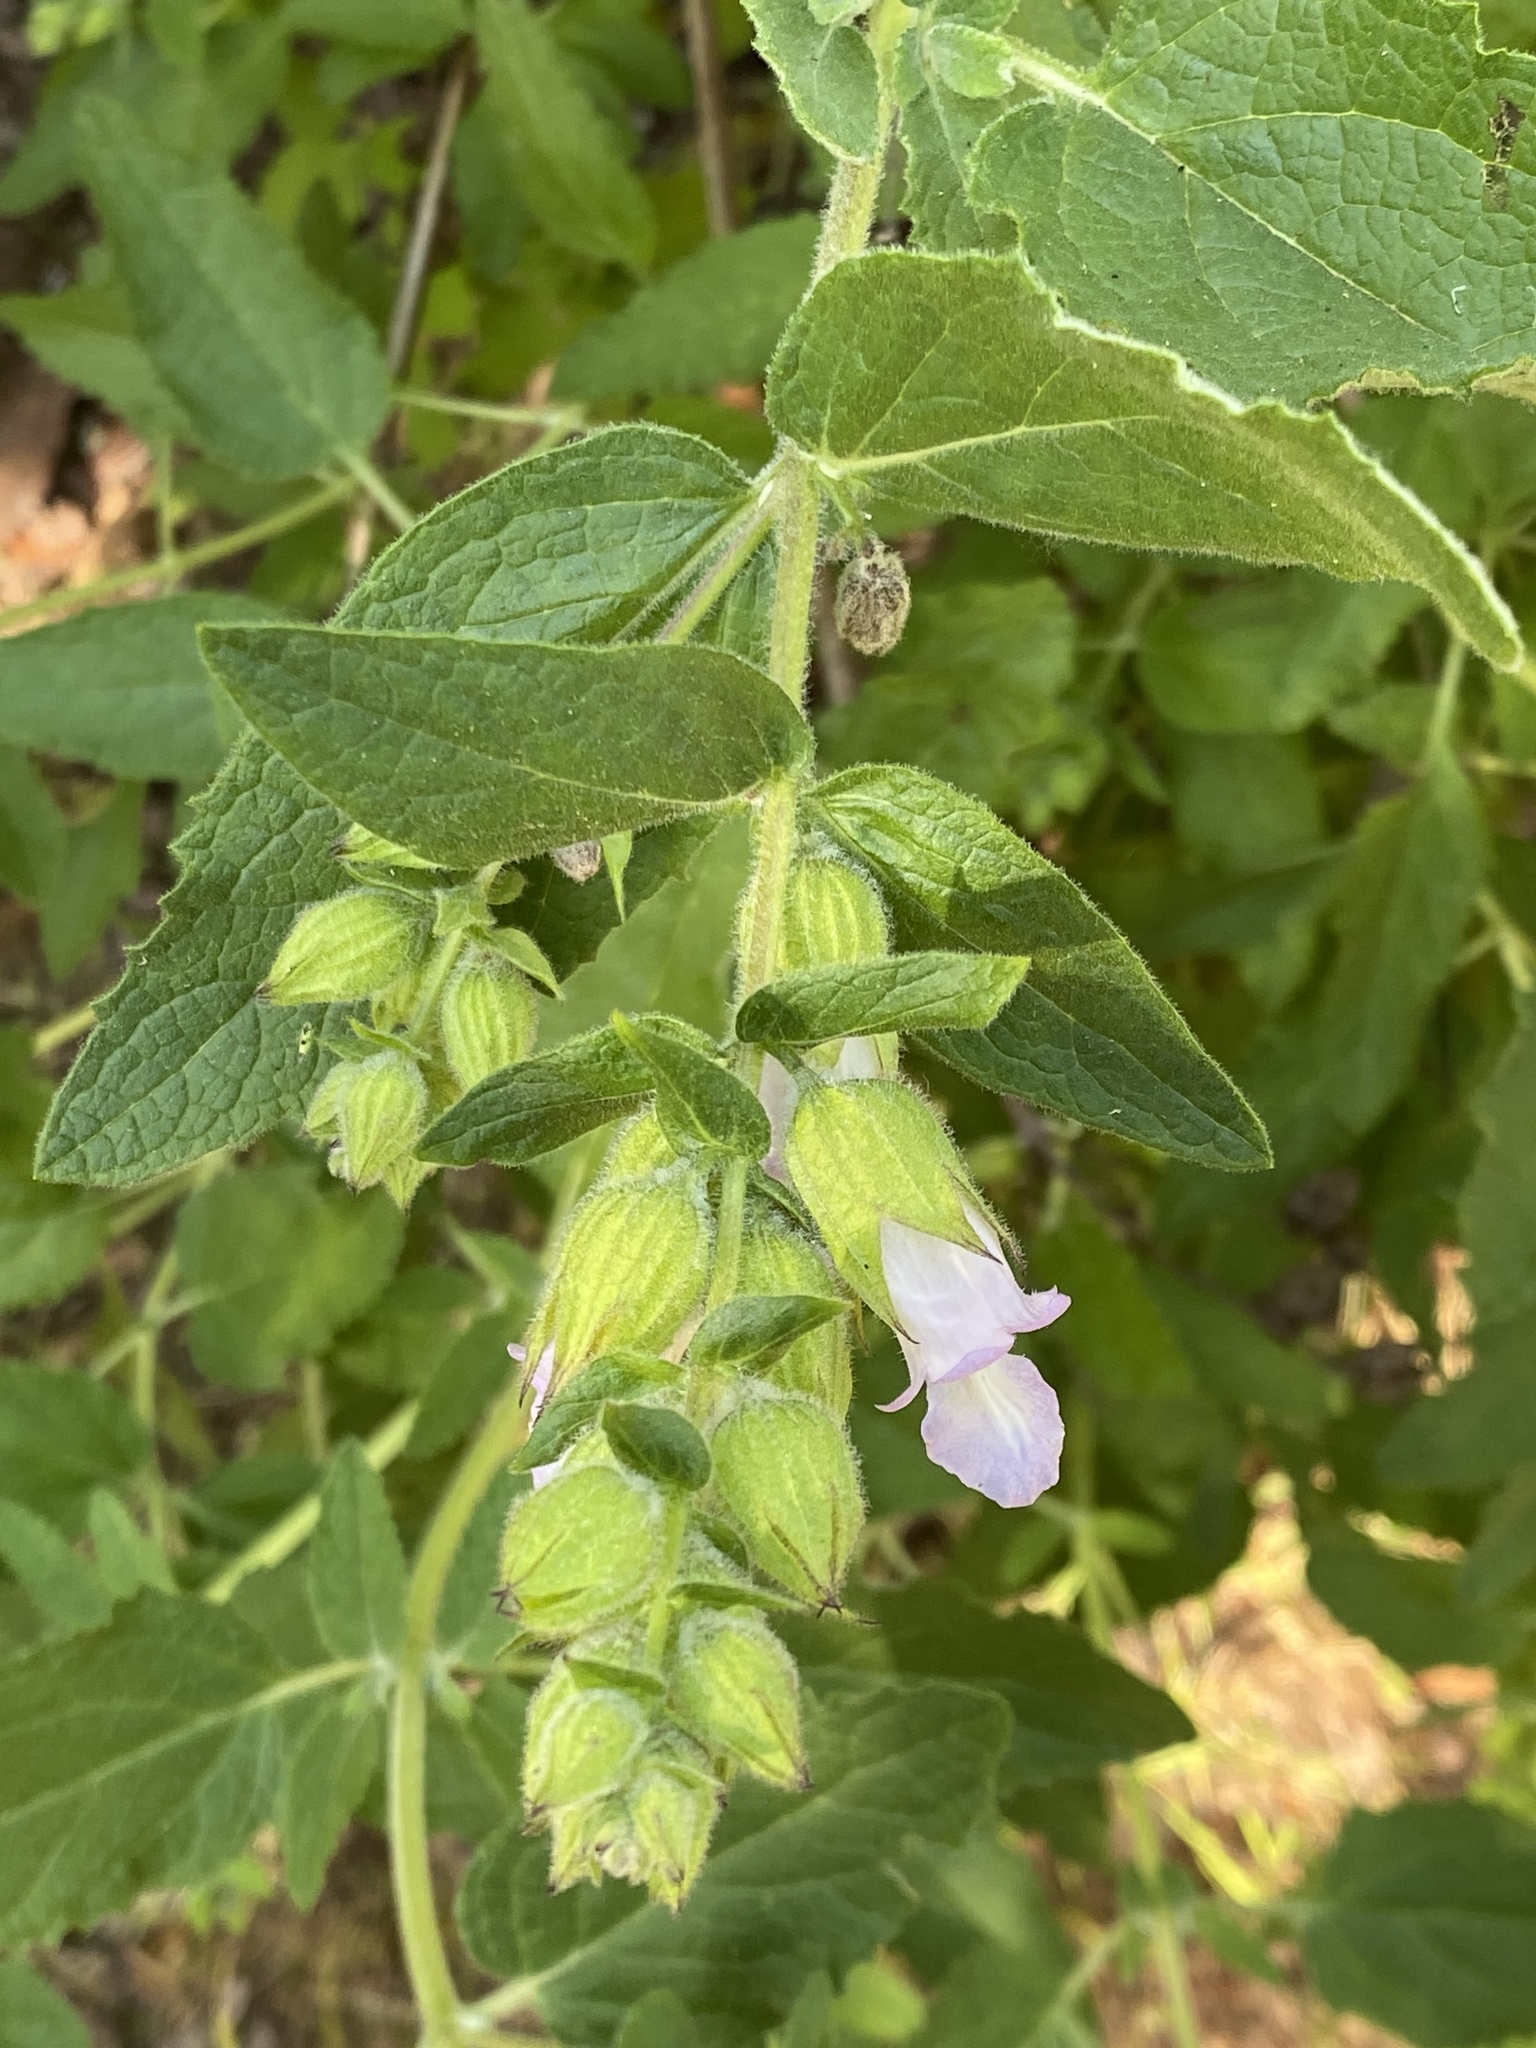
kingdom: Plantae
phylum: Tracheophyta
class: Magnoliopsida
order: Lamiales
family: Lamiaceae
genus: Lepechinia
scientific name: Lepechinia calycina
